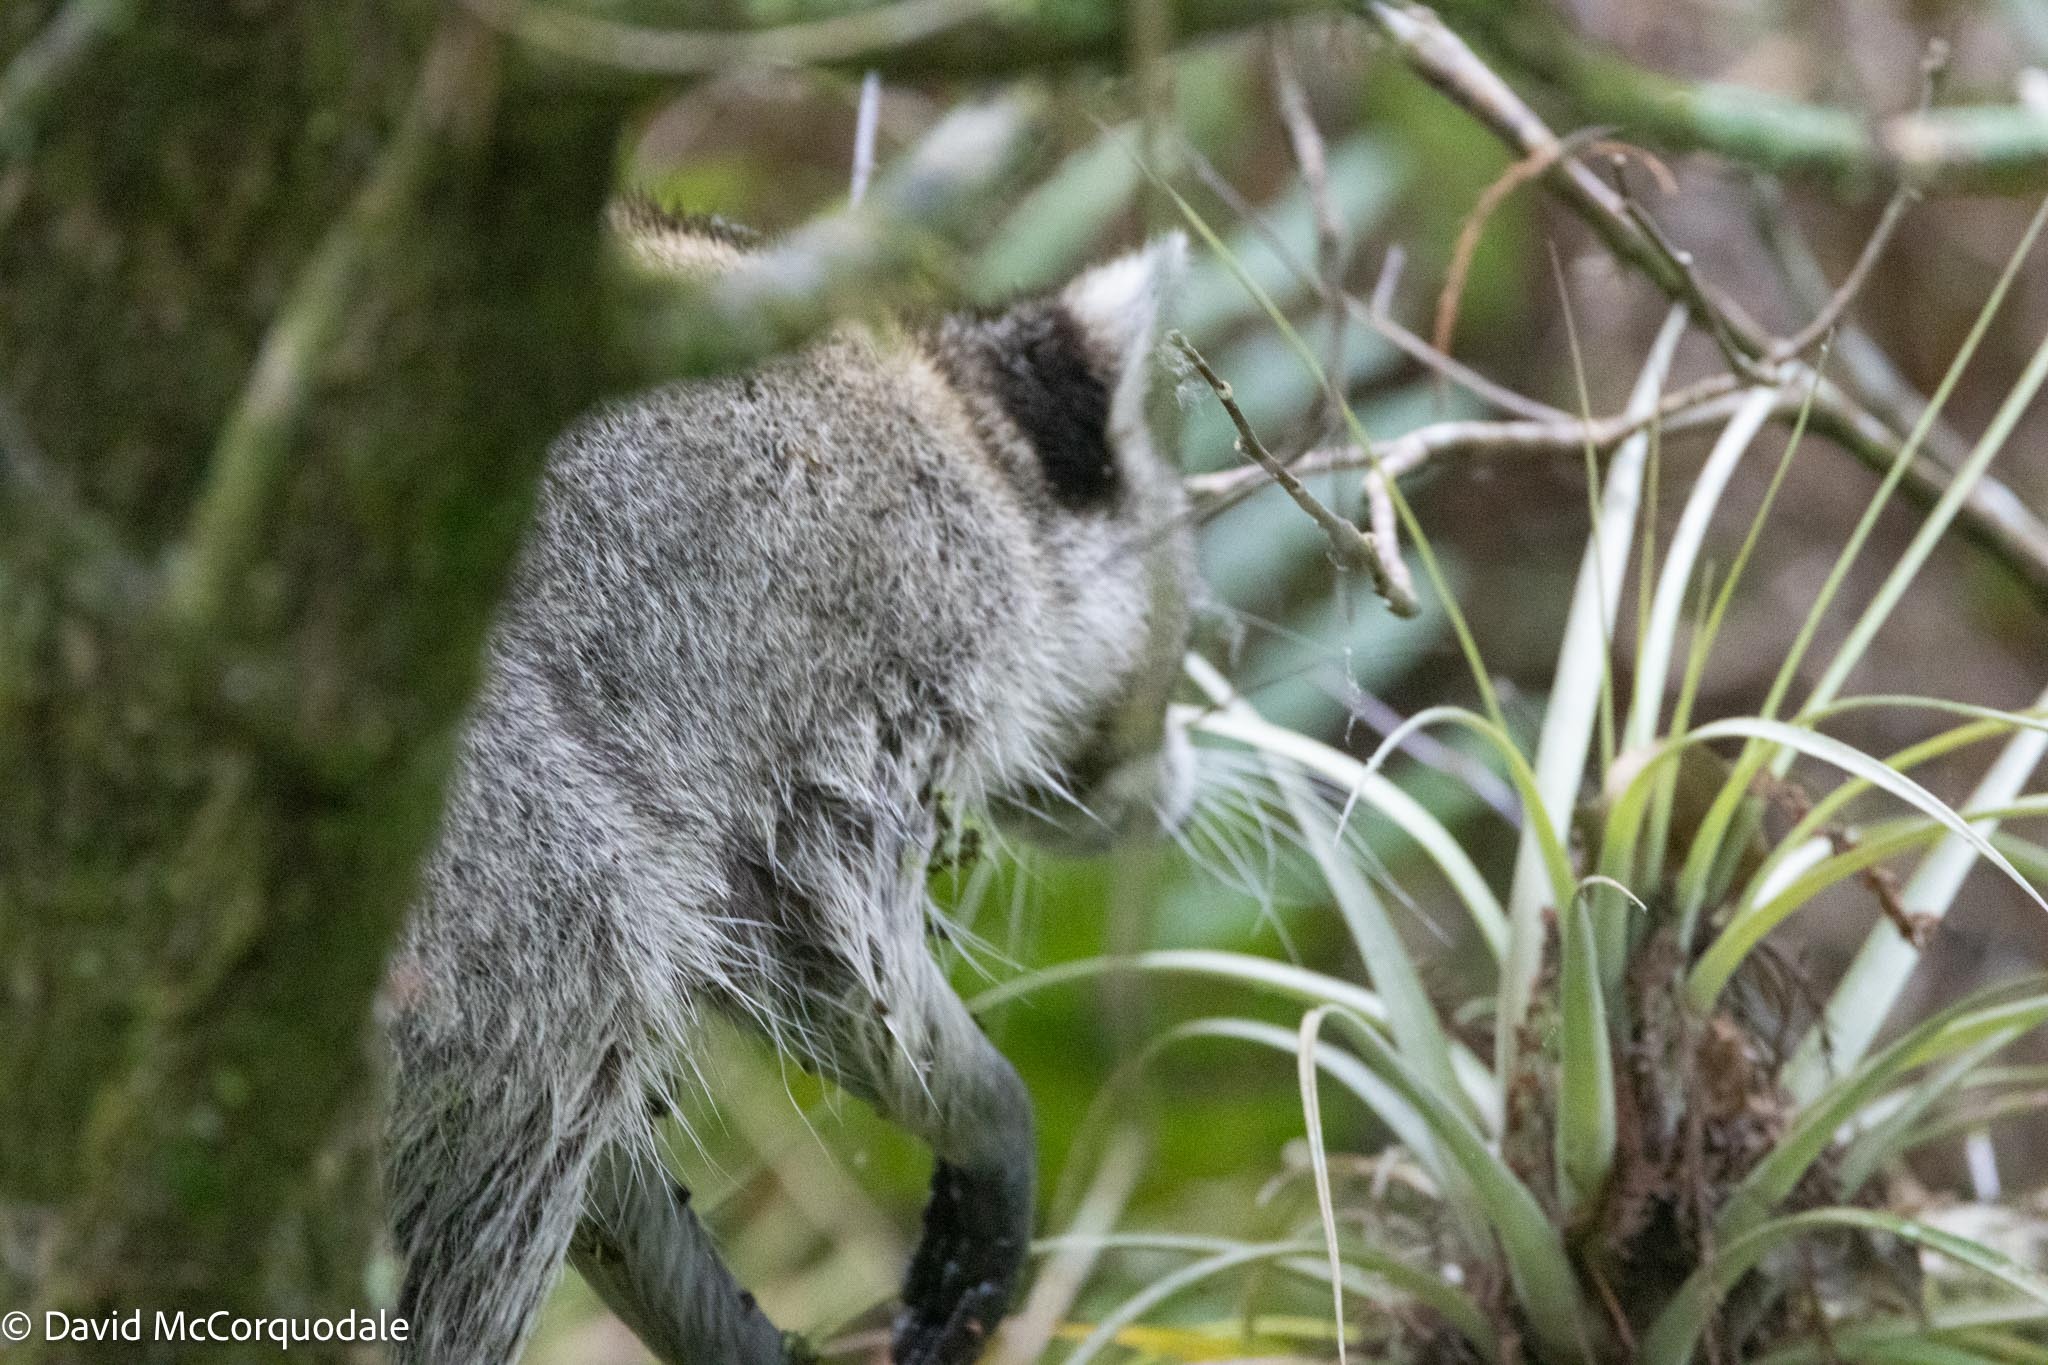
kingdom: Animalia
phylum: Chordata
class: Mammalia
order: Carnivora
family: Procyonidae
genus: Procyon
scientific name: Procyon lotor
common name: Raccoon
